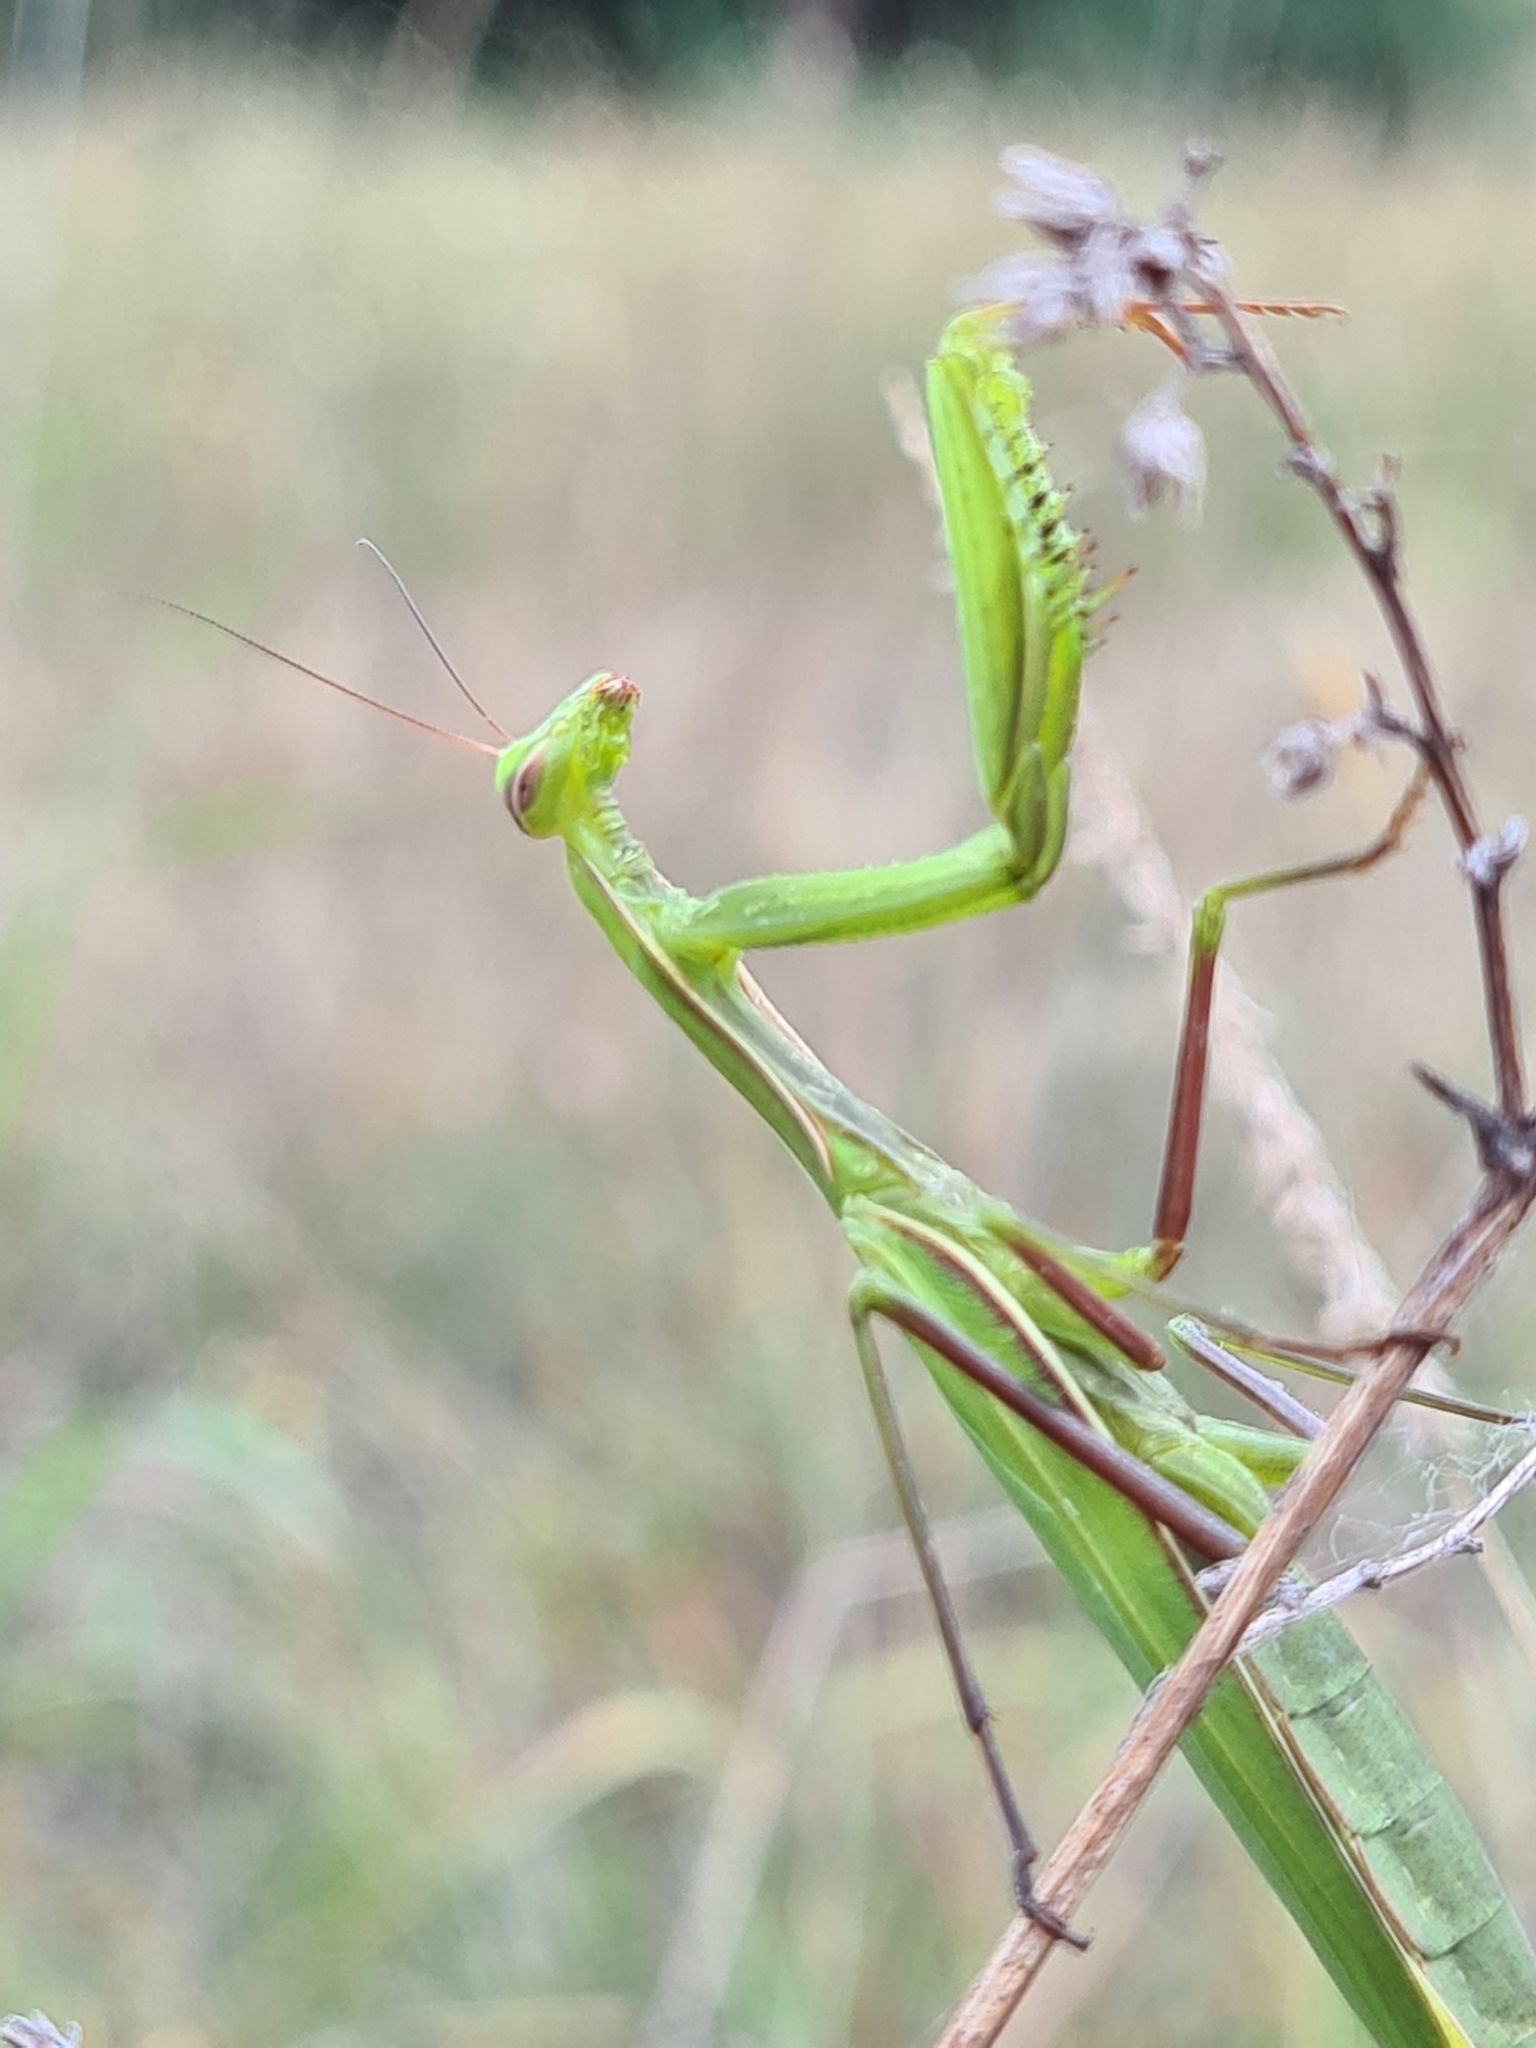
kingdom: Animalia
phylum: Arthropoda
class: Insecta
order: Mantodea
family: Mantidae
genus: Mantis
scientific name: Mantis religiosa
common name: Praying mantis
